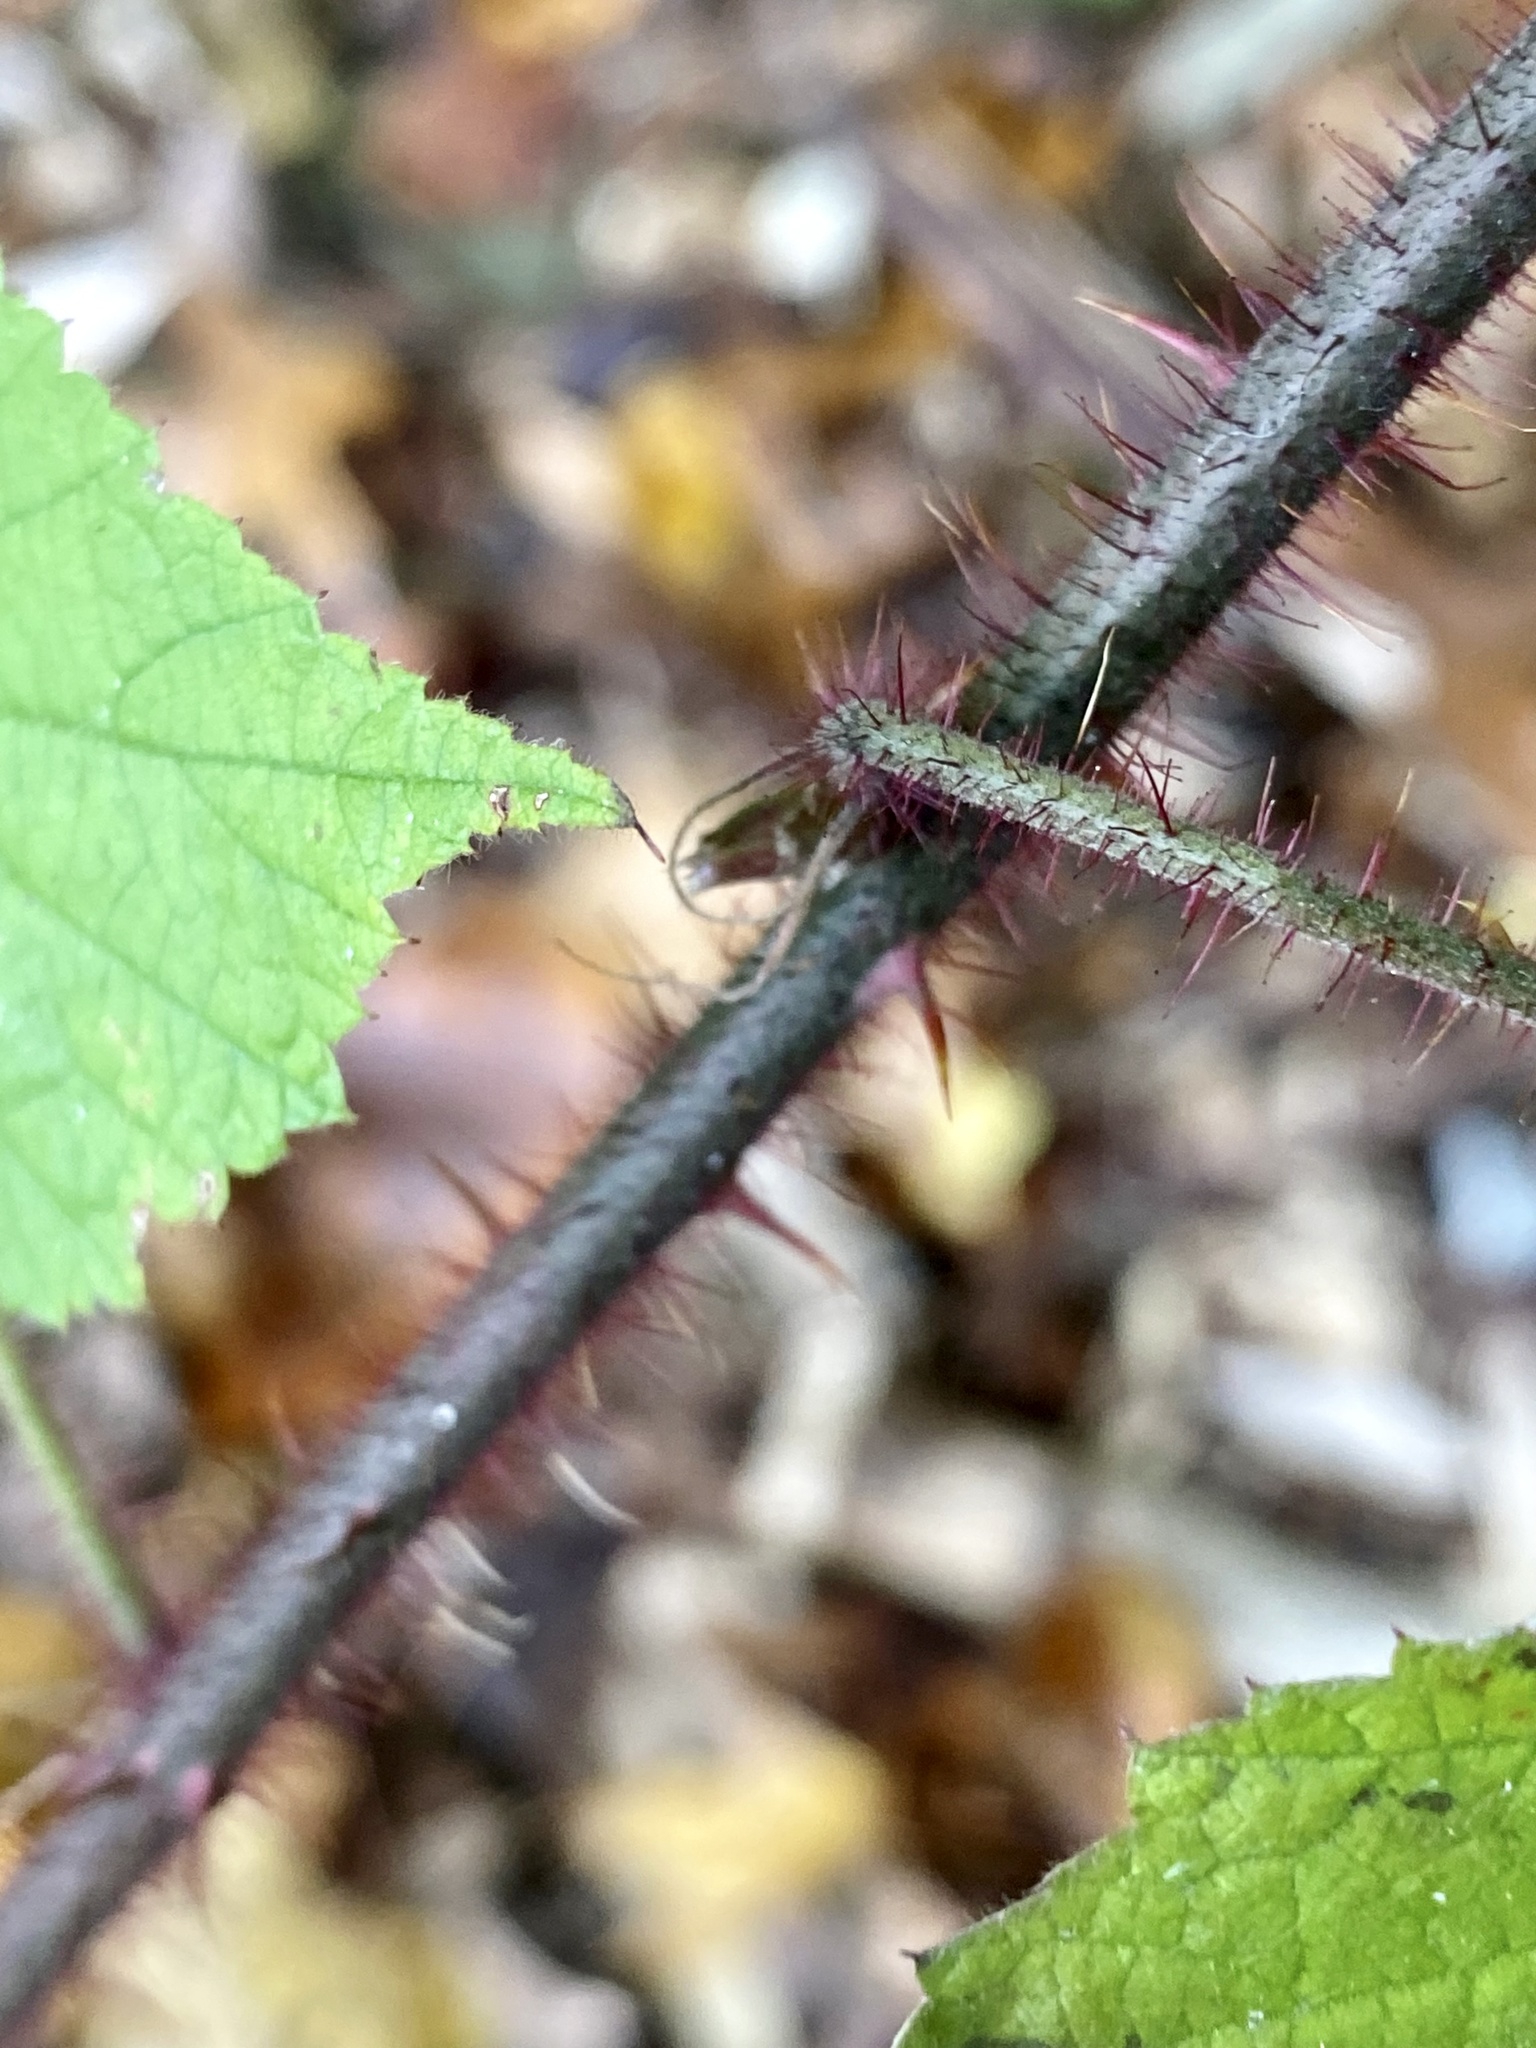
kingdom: Plantae
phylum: Tracheophyta
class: Magnoliopsida
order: Rosales
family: Rosaceae
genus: Rubus
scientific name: Rubus phoenicolasius
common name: Japanese wineberry
